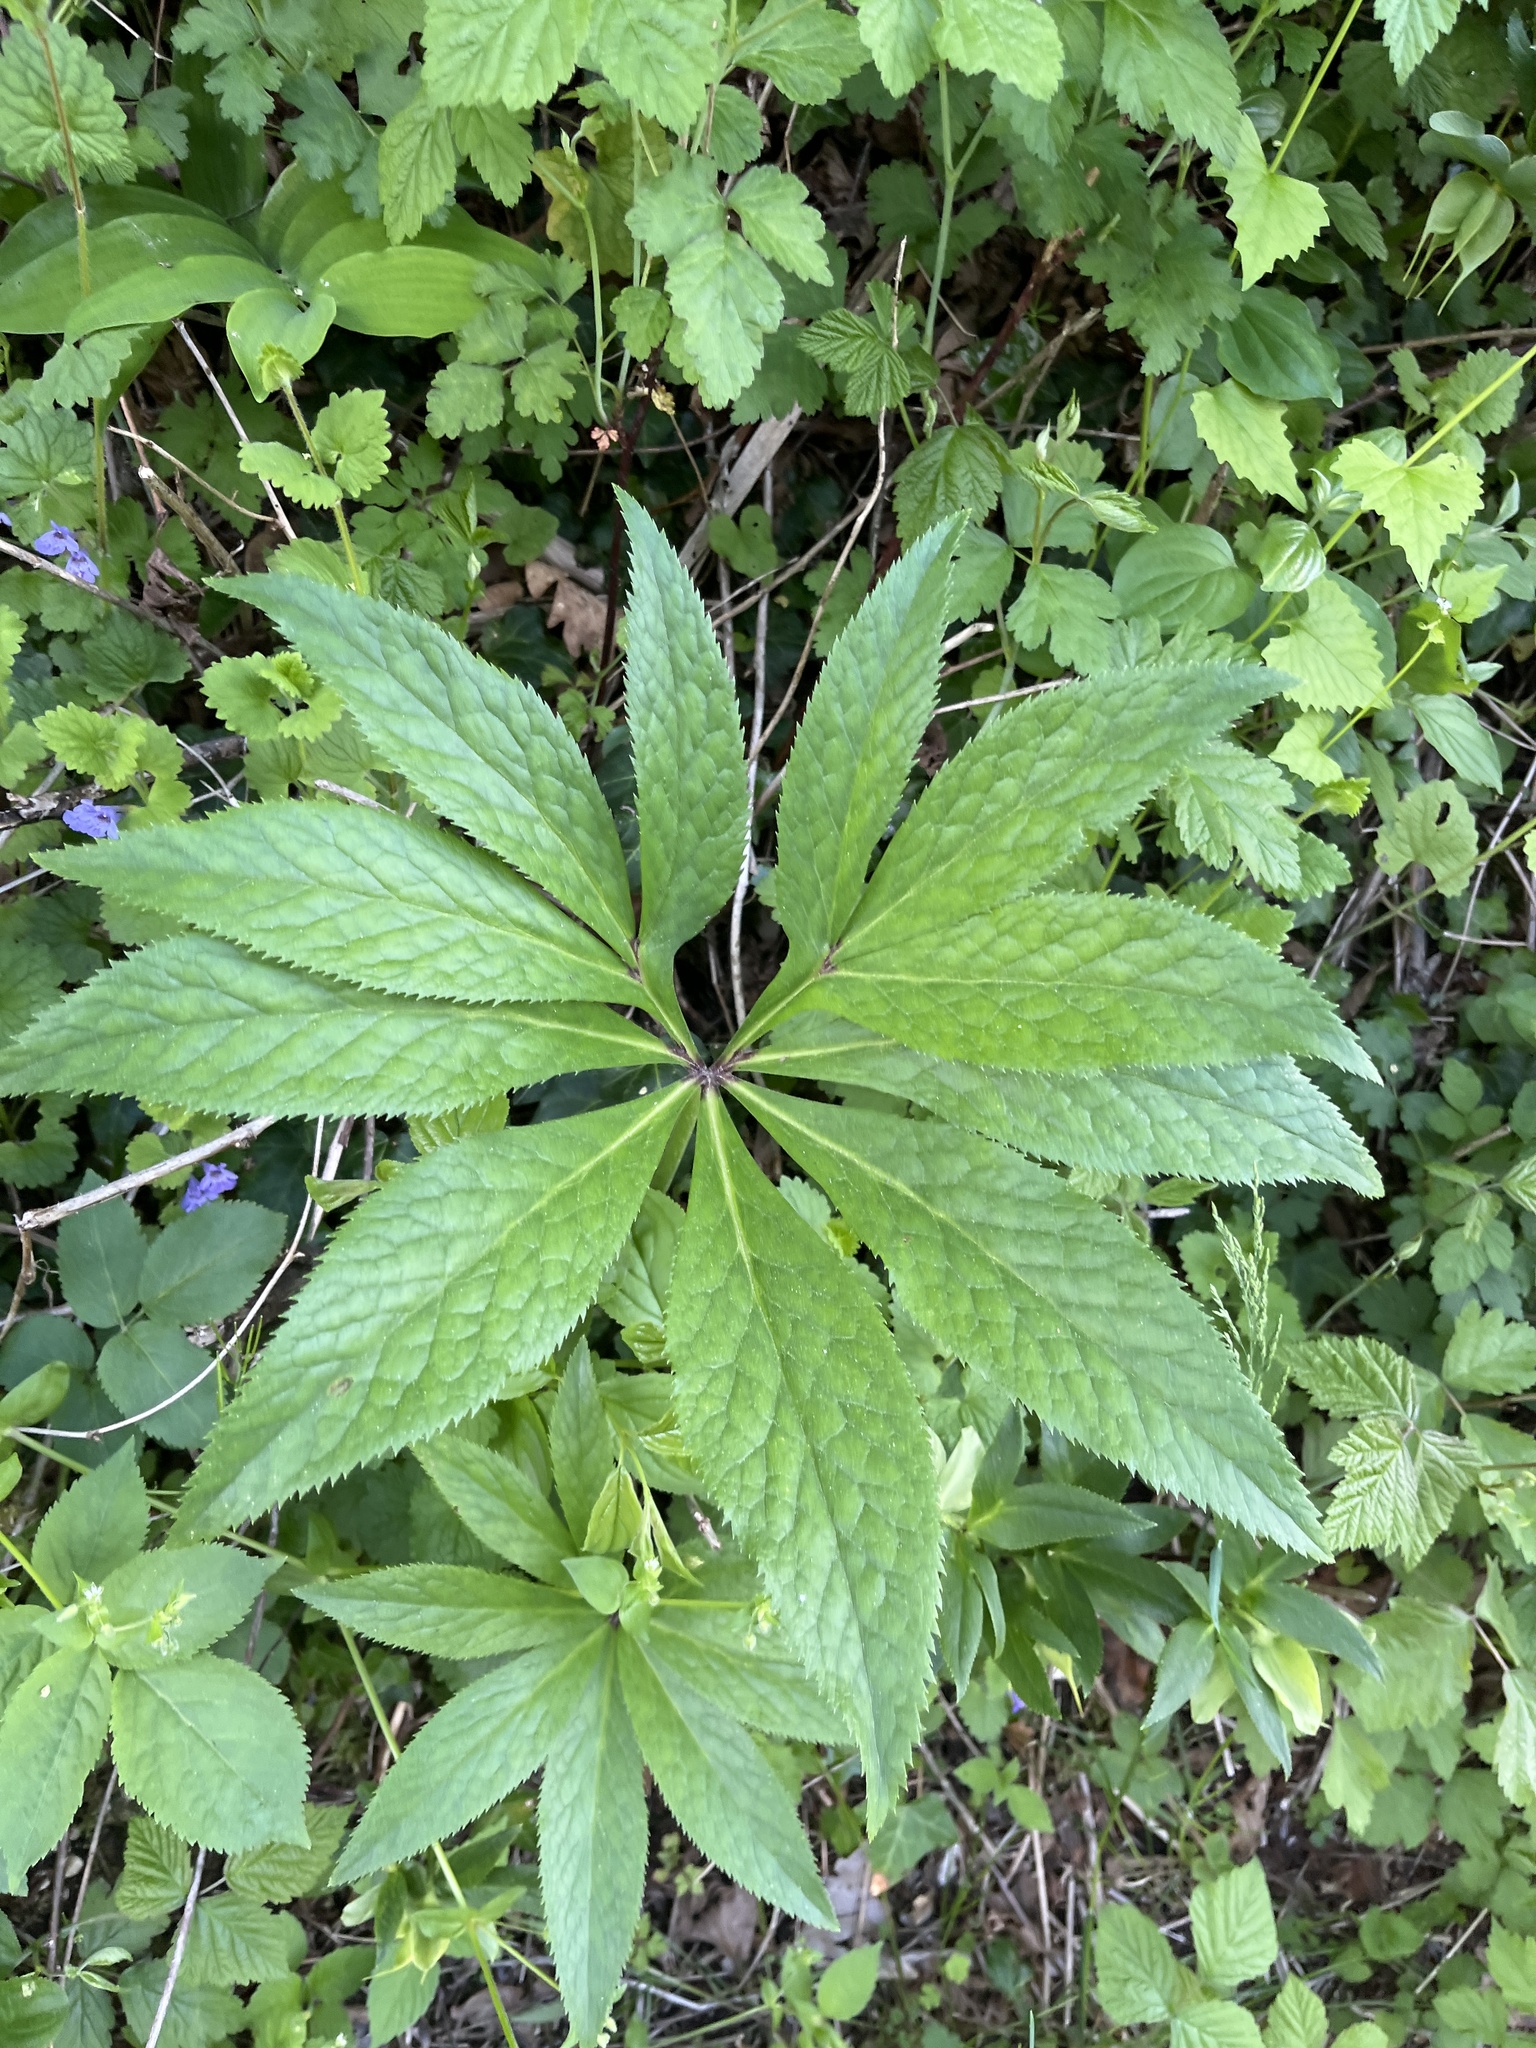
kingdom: Plantae
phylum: Tracheophyta
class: Magnoliopsida
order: Ranunculales
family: Ranunculaceae
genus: Helleborus
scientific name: Helleborus odorus
